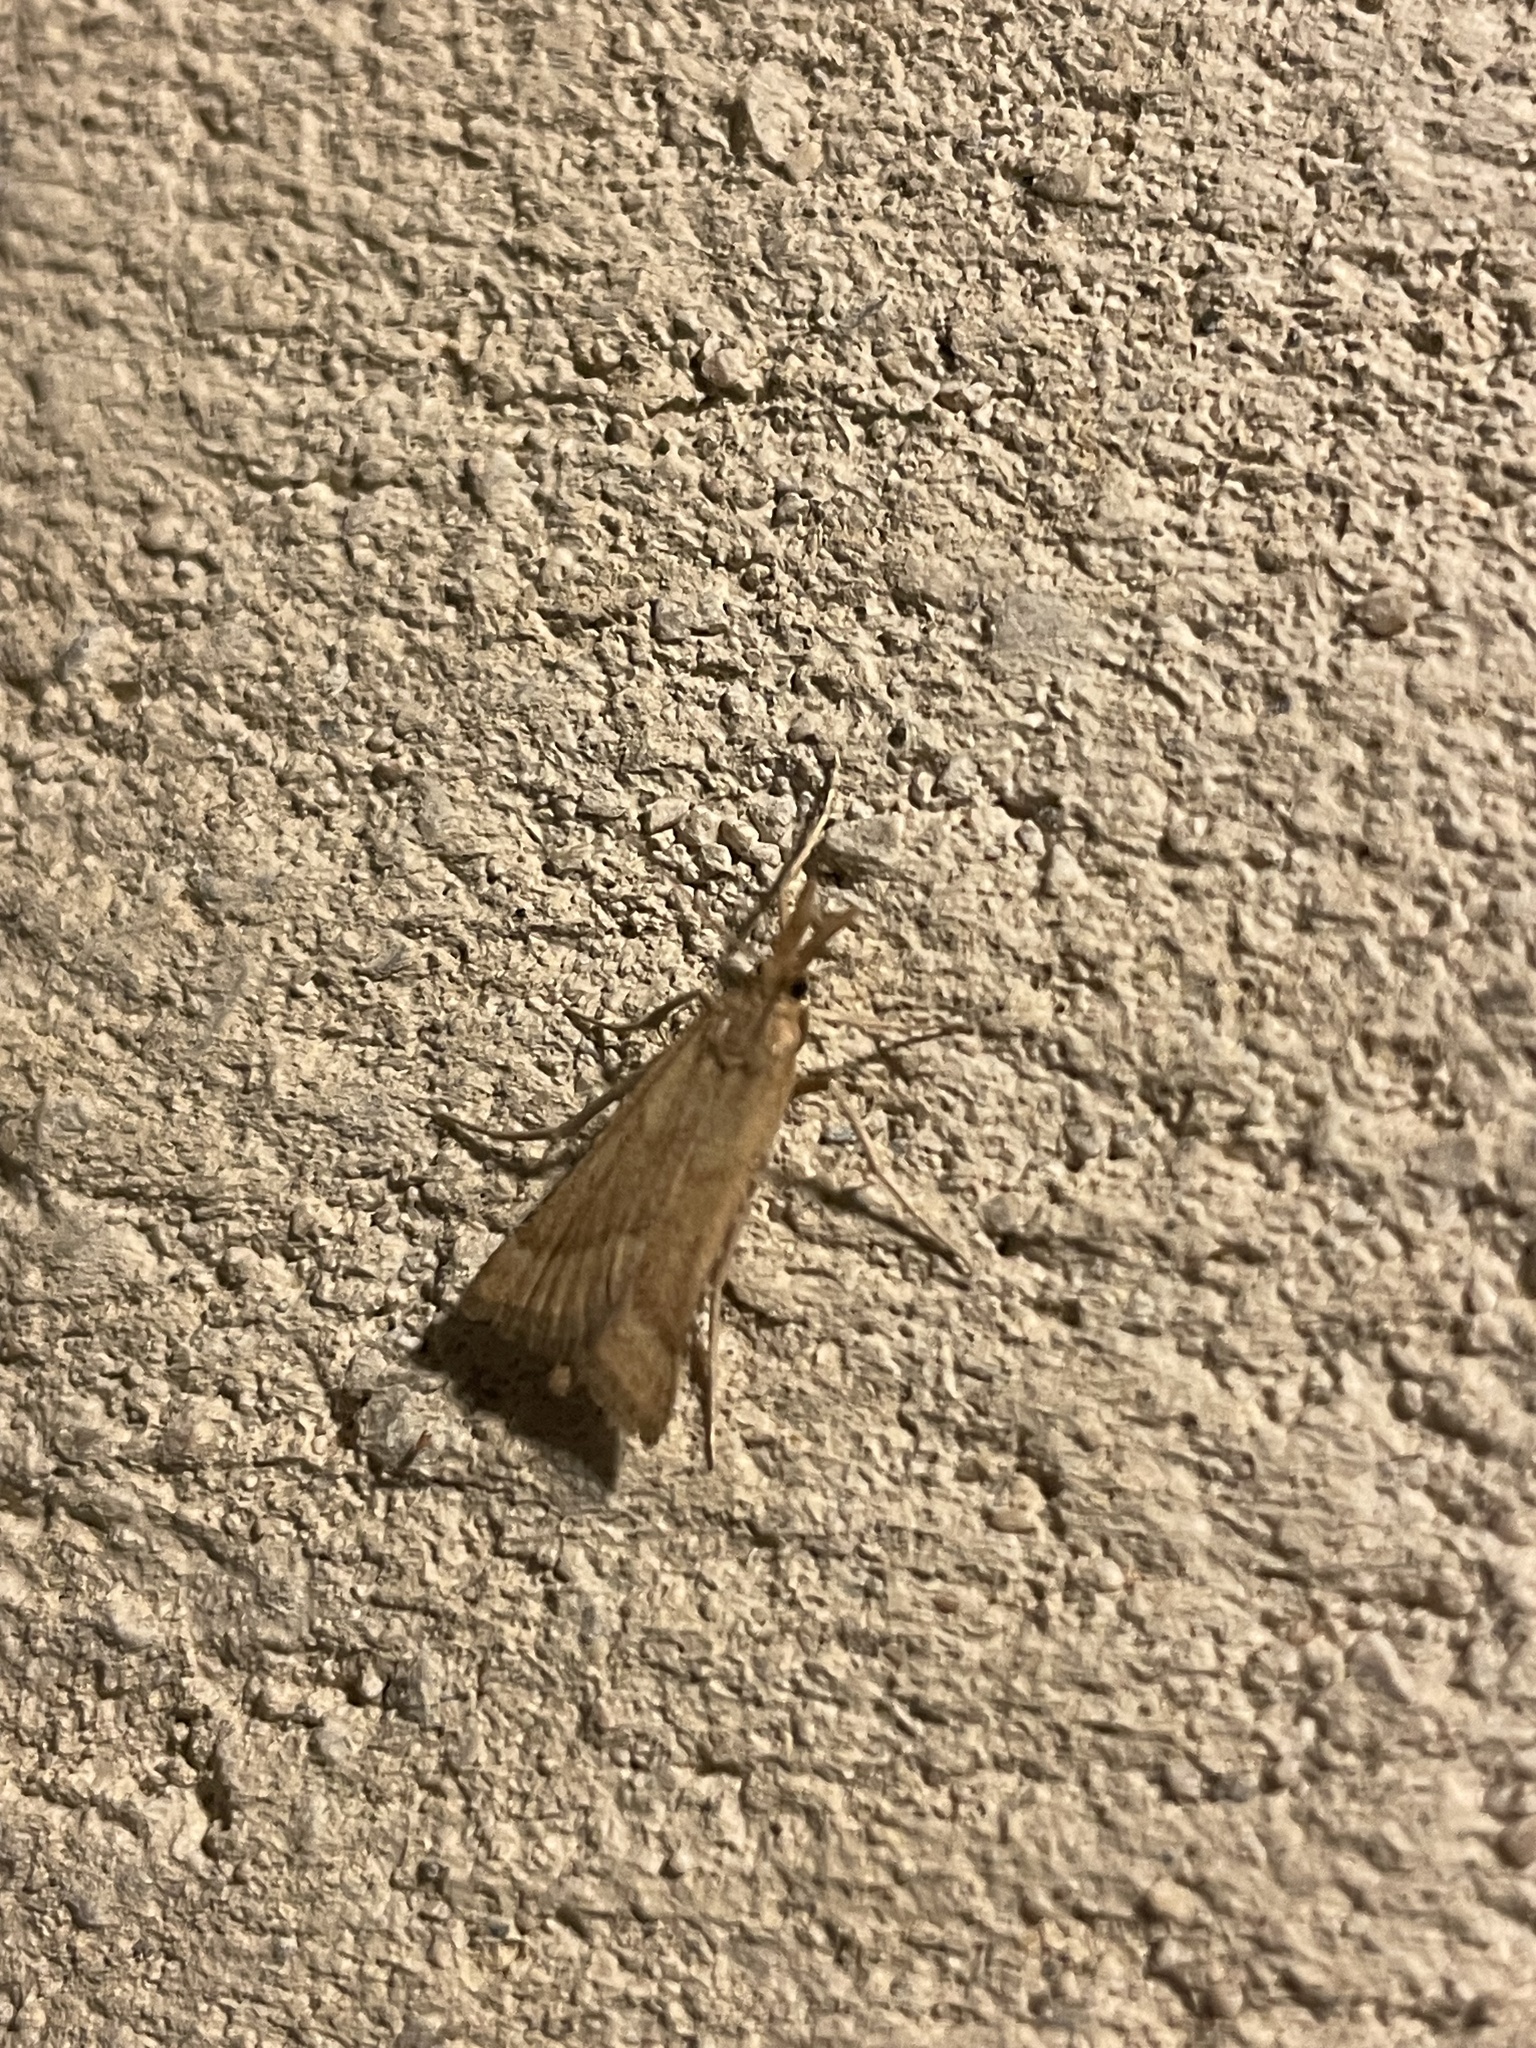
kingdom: Animalia
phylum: Arthropoda
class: Insecta
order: Lepidoptera
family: Pyralidae
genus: Synaphe
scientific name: Synaphe punctalis
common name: Long-legged tabby
